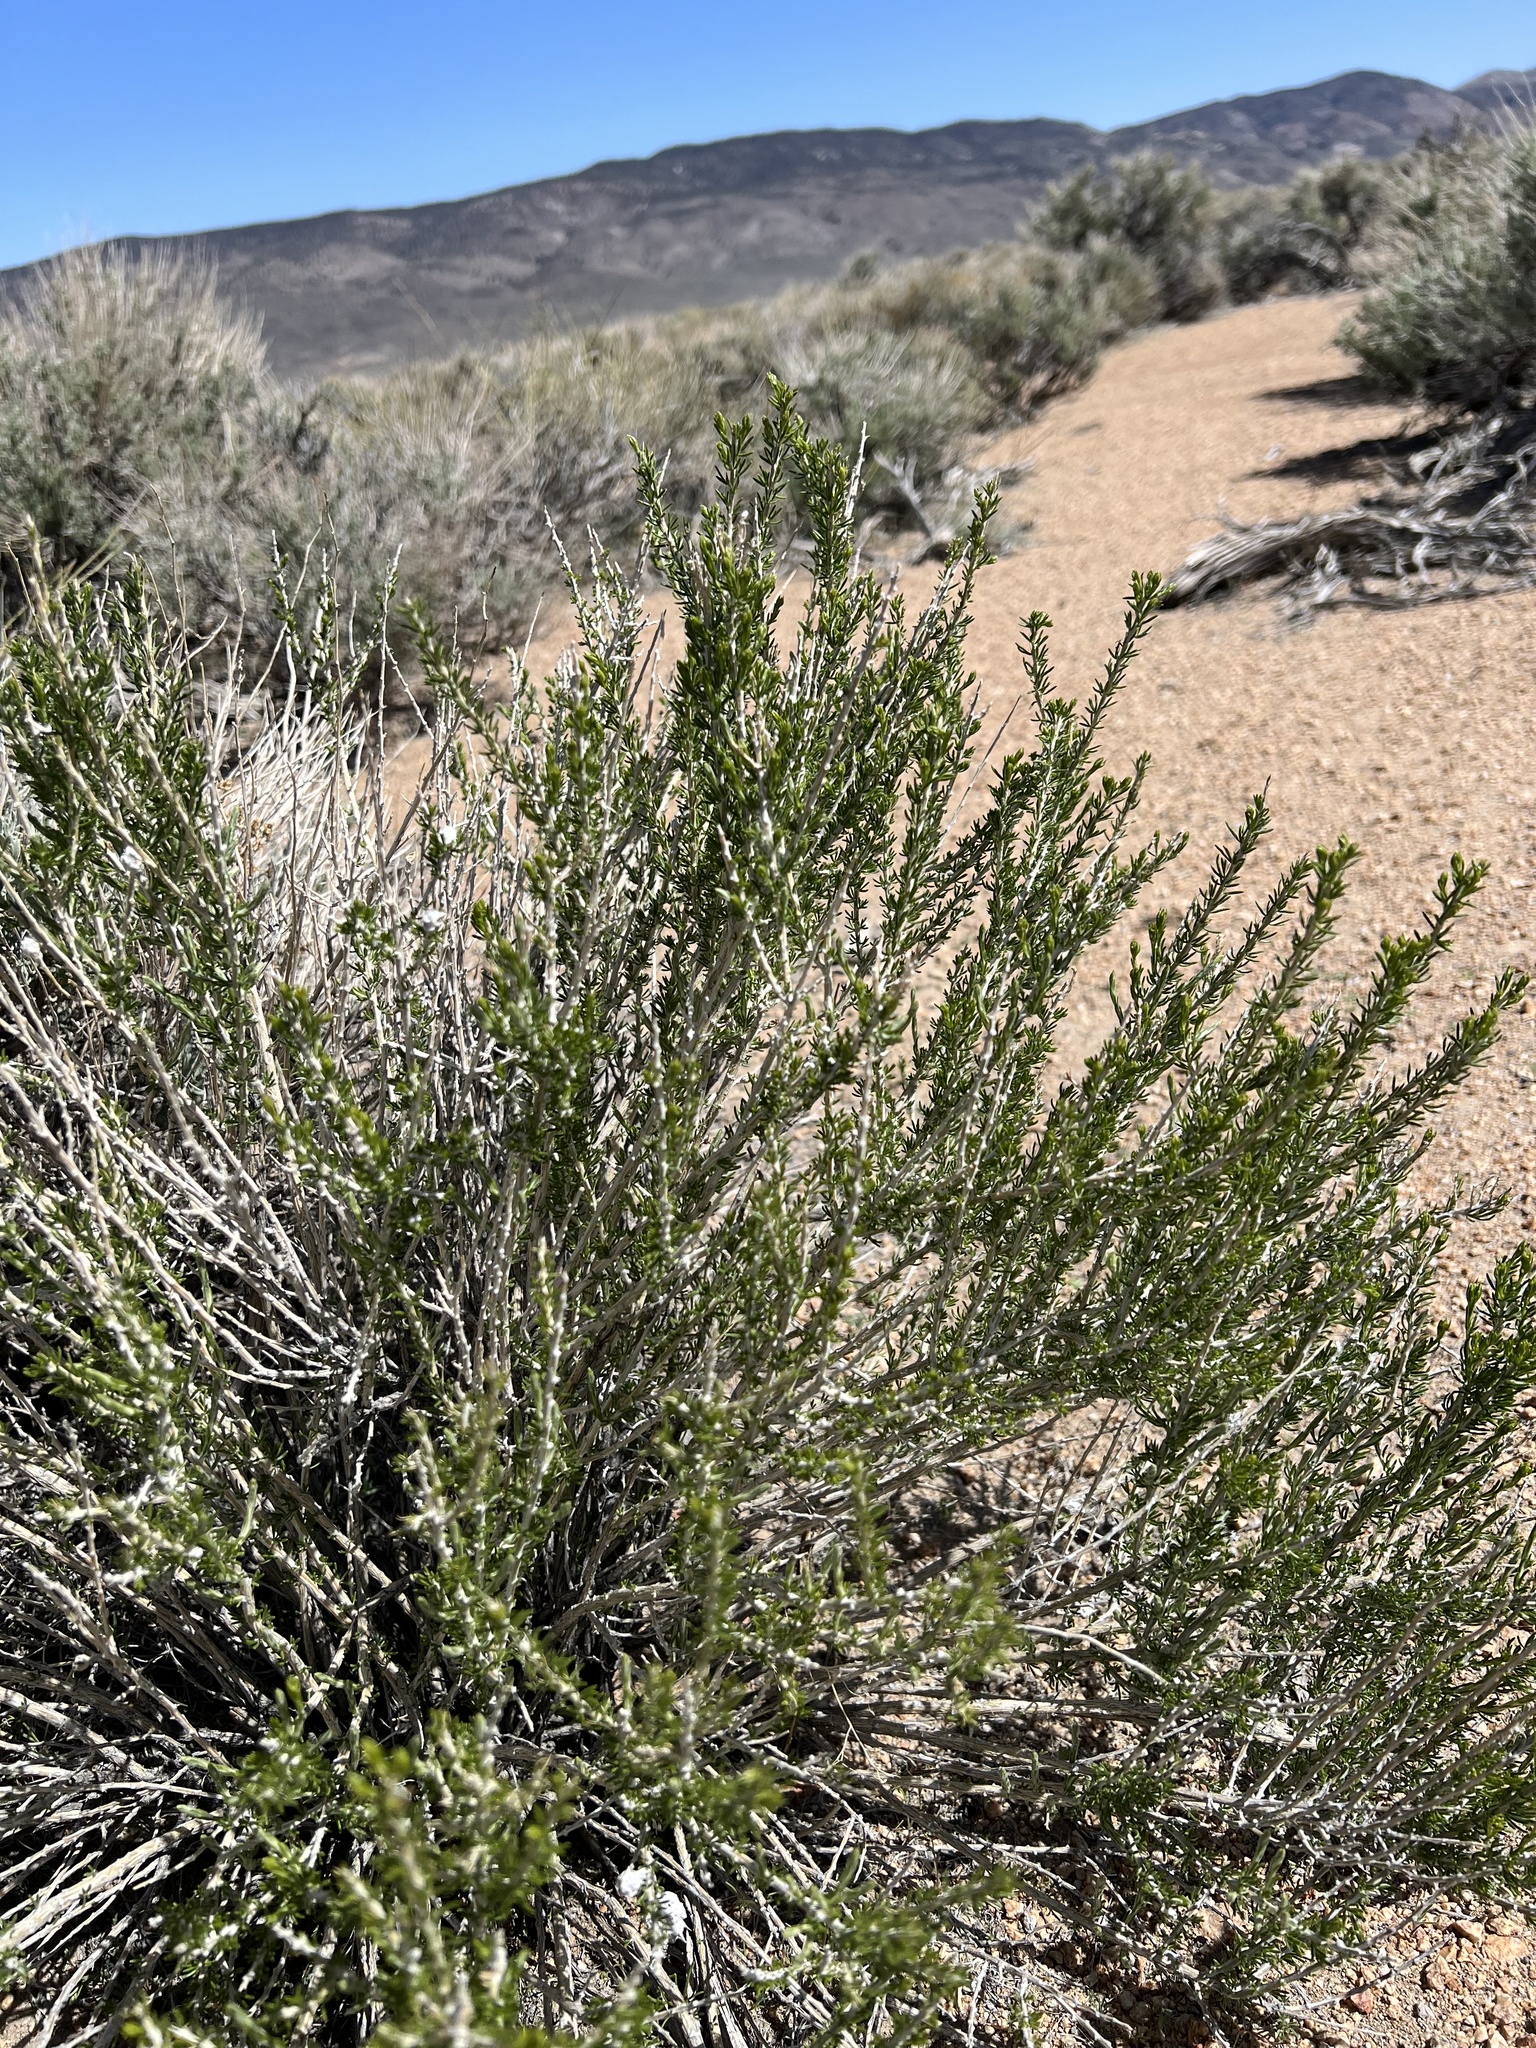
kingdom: Plantae
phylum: Tracheophyta
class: Magnoliopsida
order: Asterales
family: Asteraceae
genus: Tetradymia
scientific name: Tetradymia glabrata
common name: Smooth tetradymia
